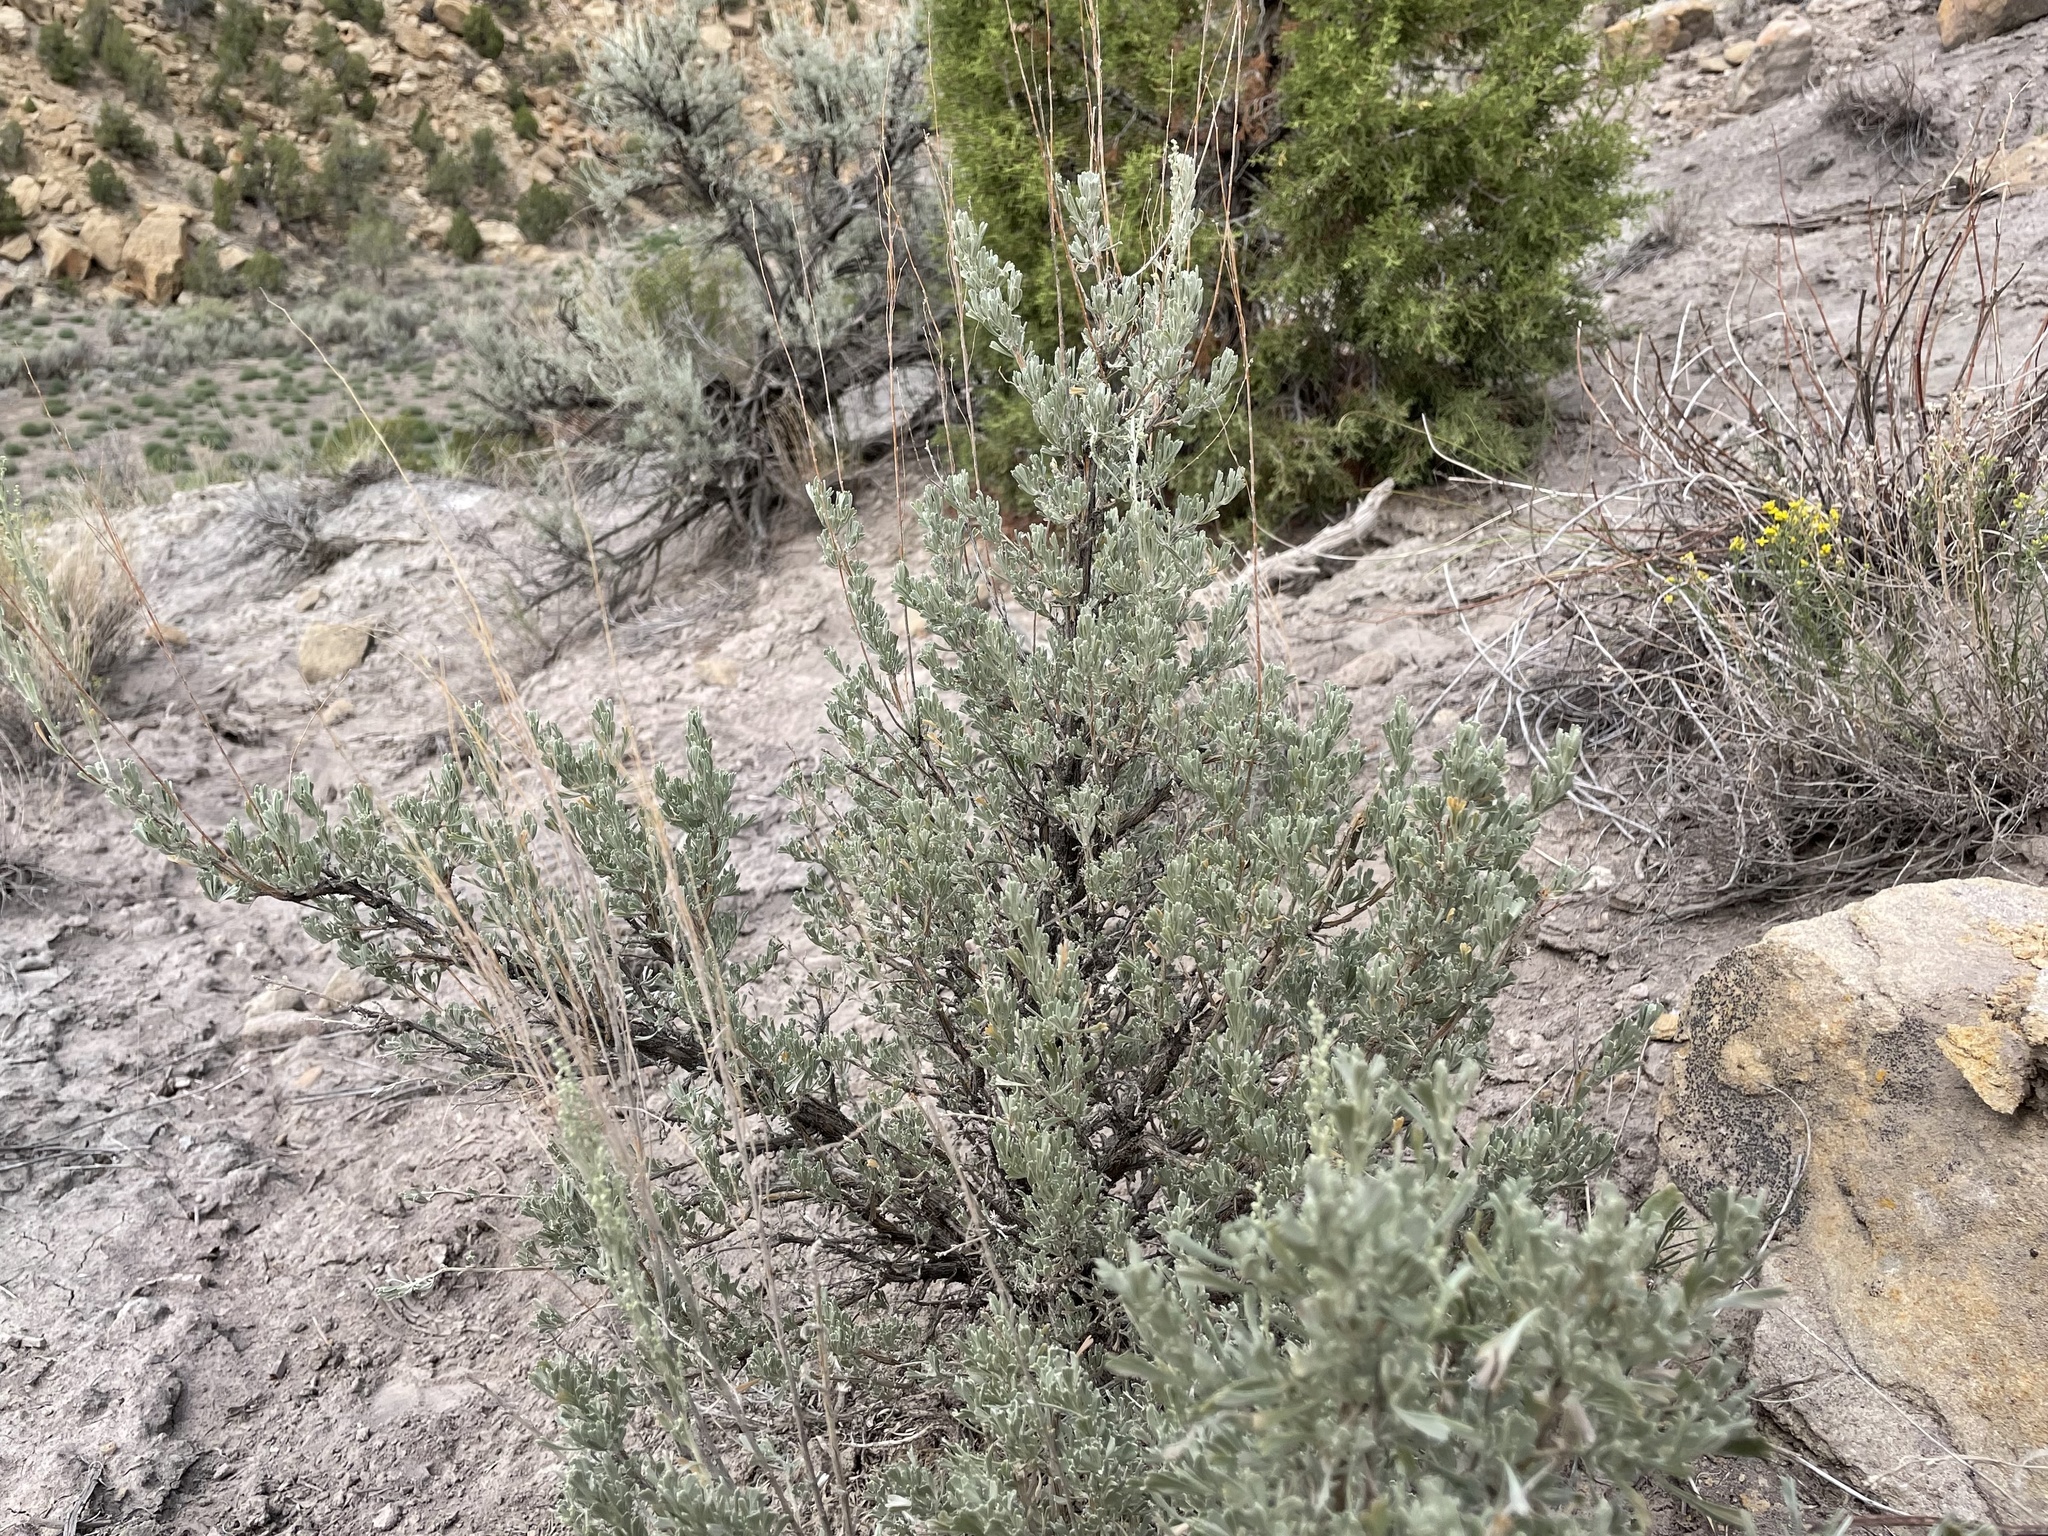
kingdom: Plantae
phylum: Tracheophyta
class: Magnoliopsida
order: Asterales
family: Asteraceae
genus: Artemisia
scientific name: Artemisia tridentata
